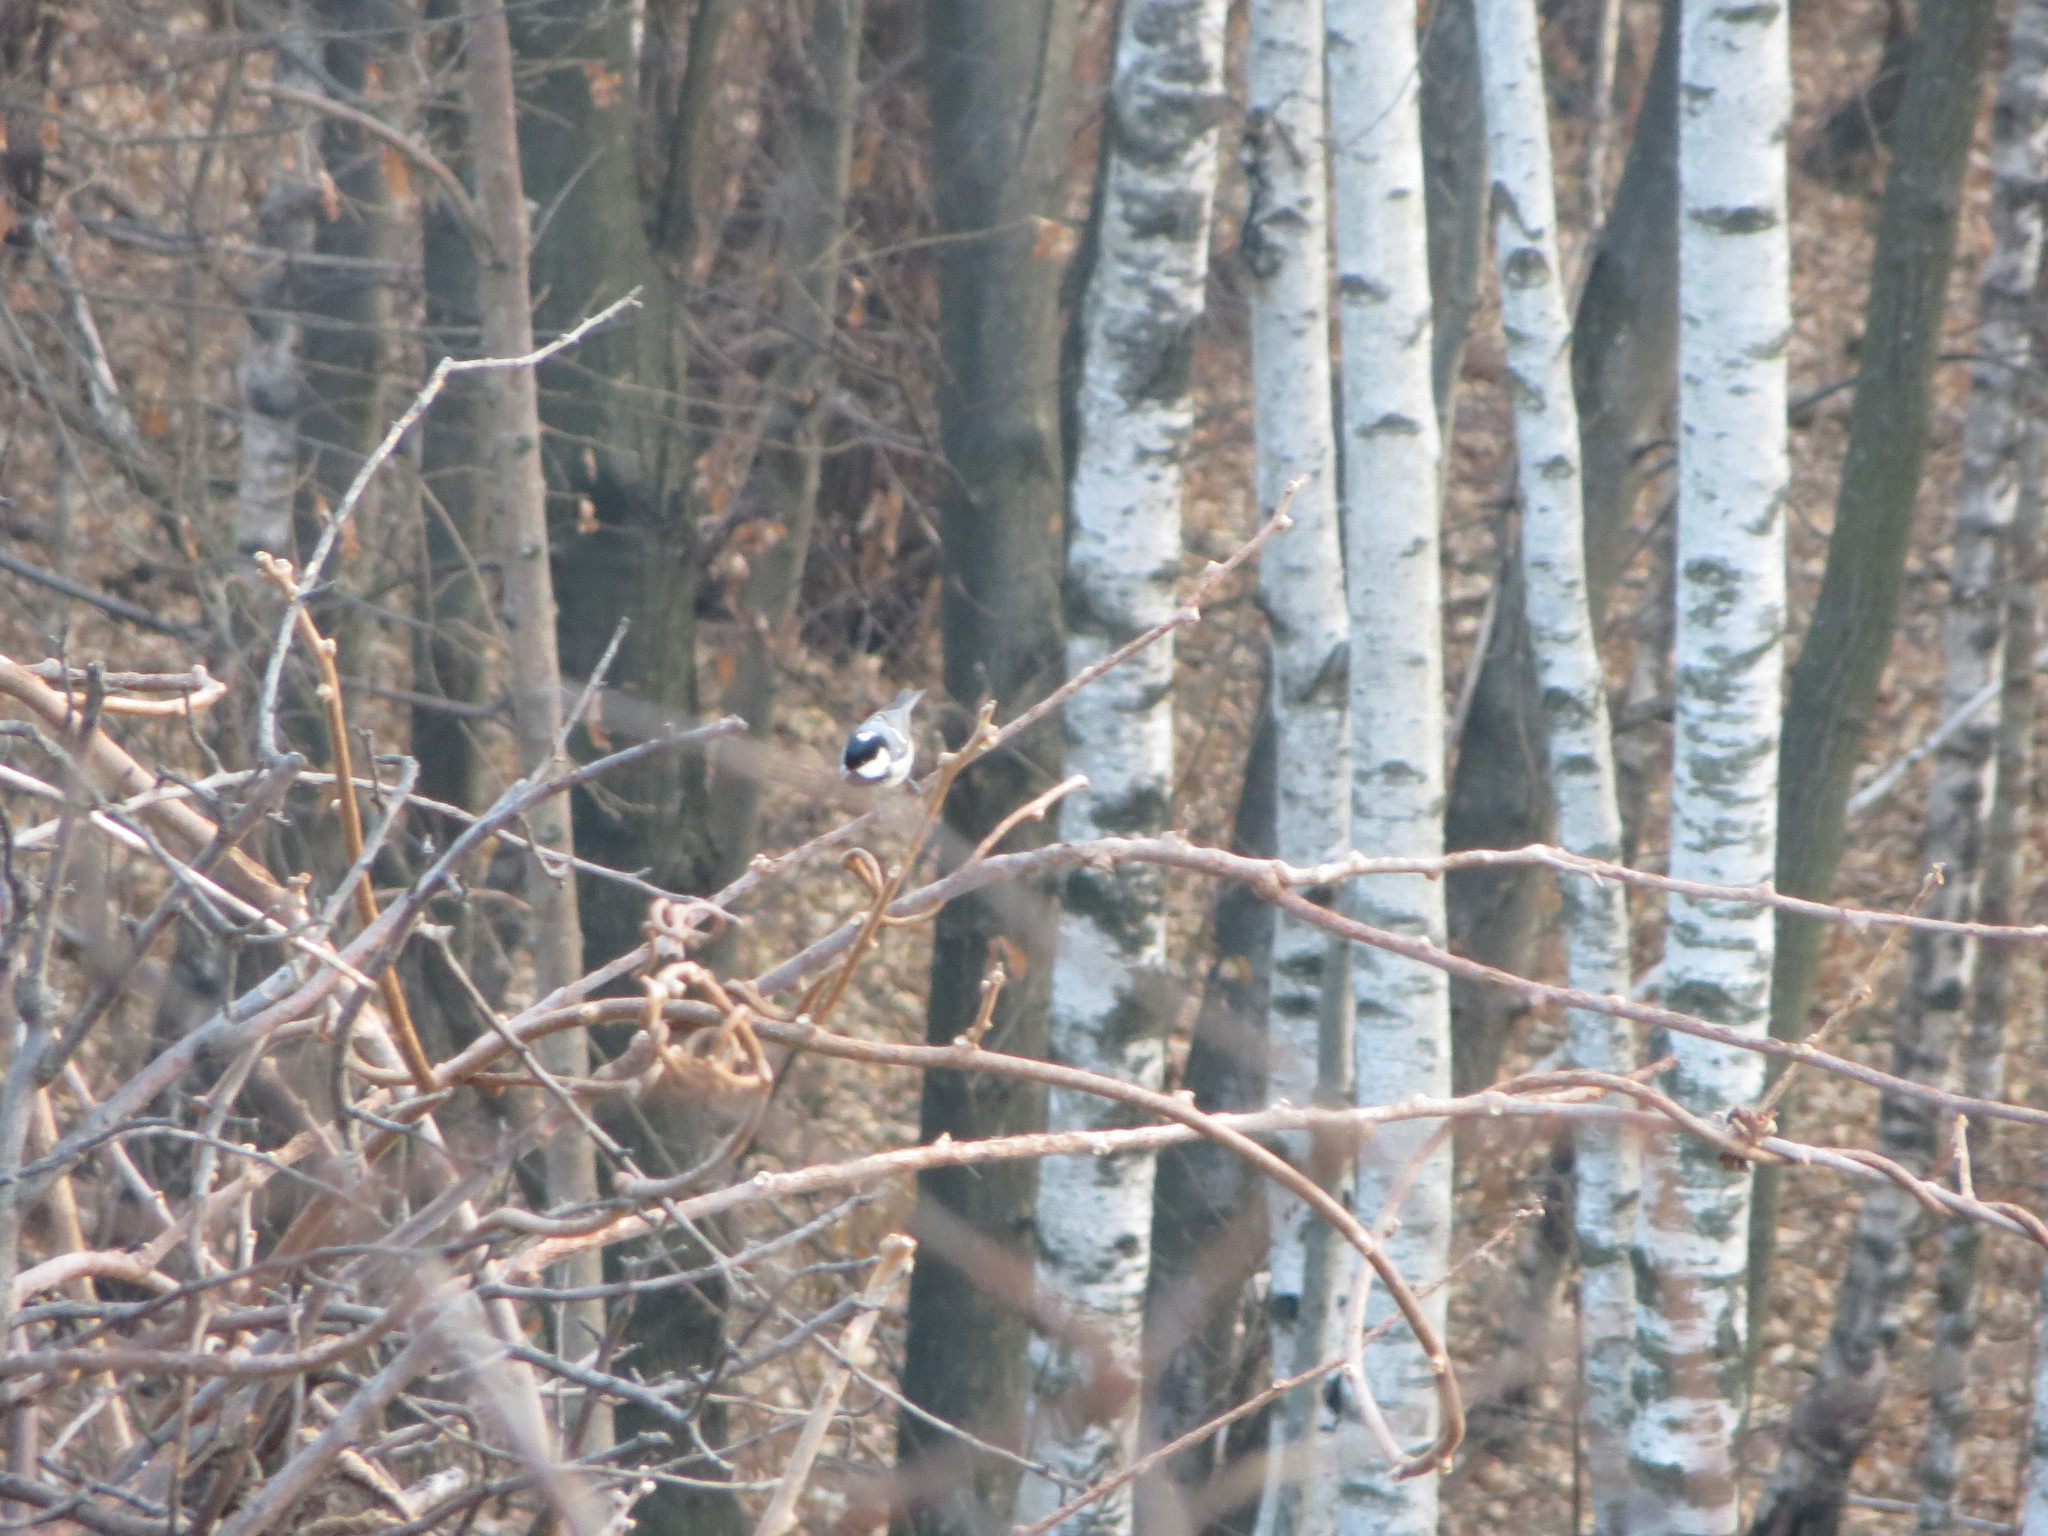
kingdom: Animalia
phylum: Chordata
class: Aves
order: Passeriformes
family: Paridae
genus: Parus
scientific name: Parus major
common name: Great tit
